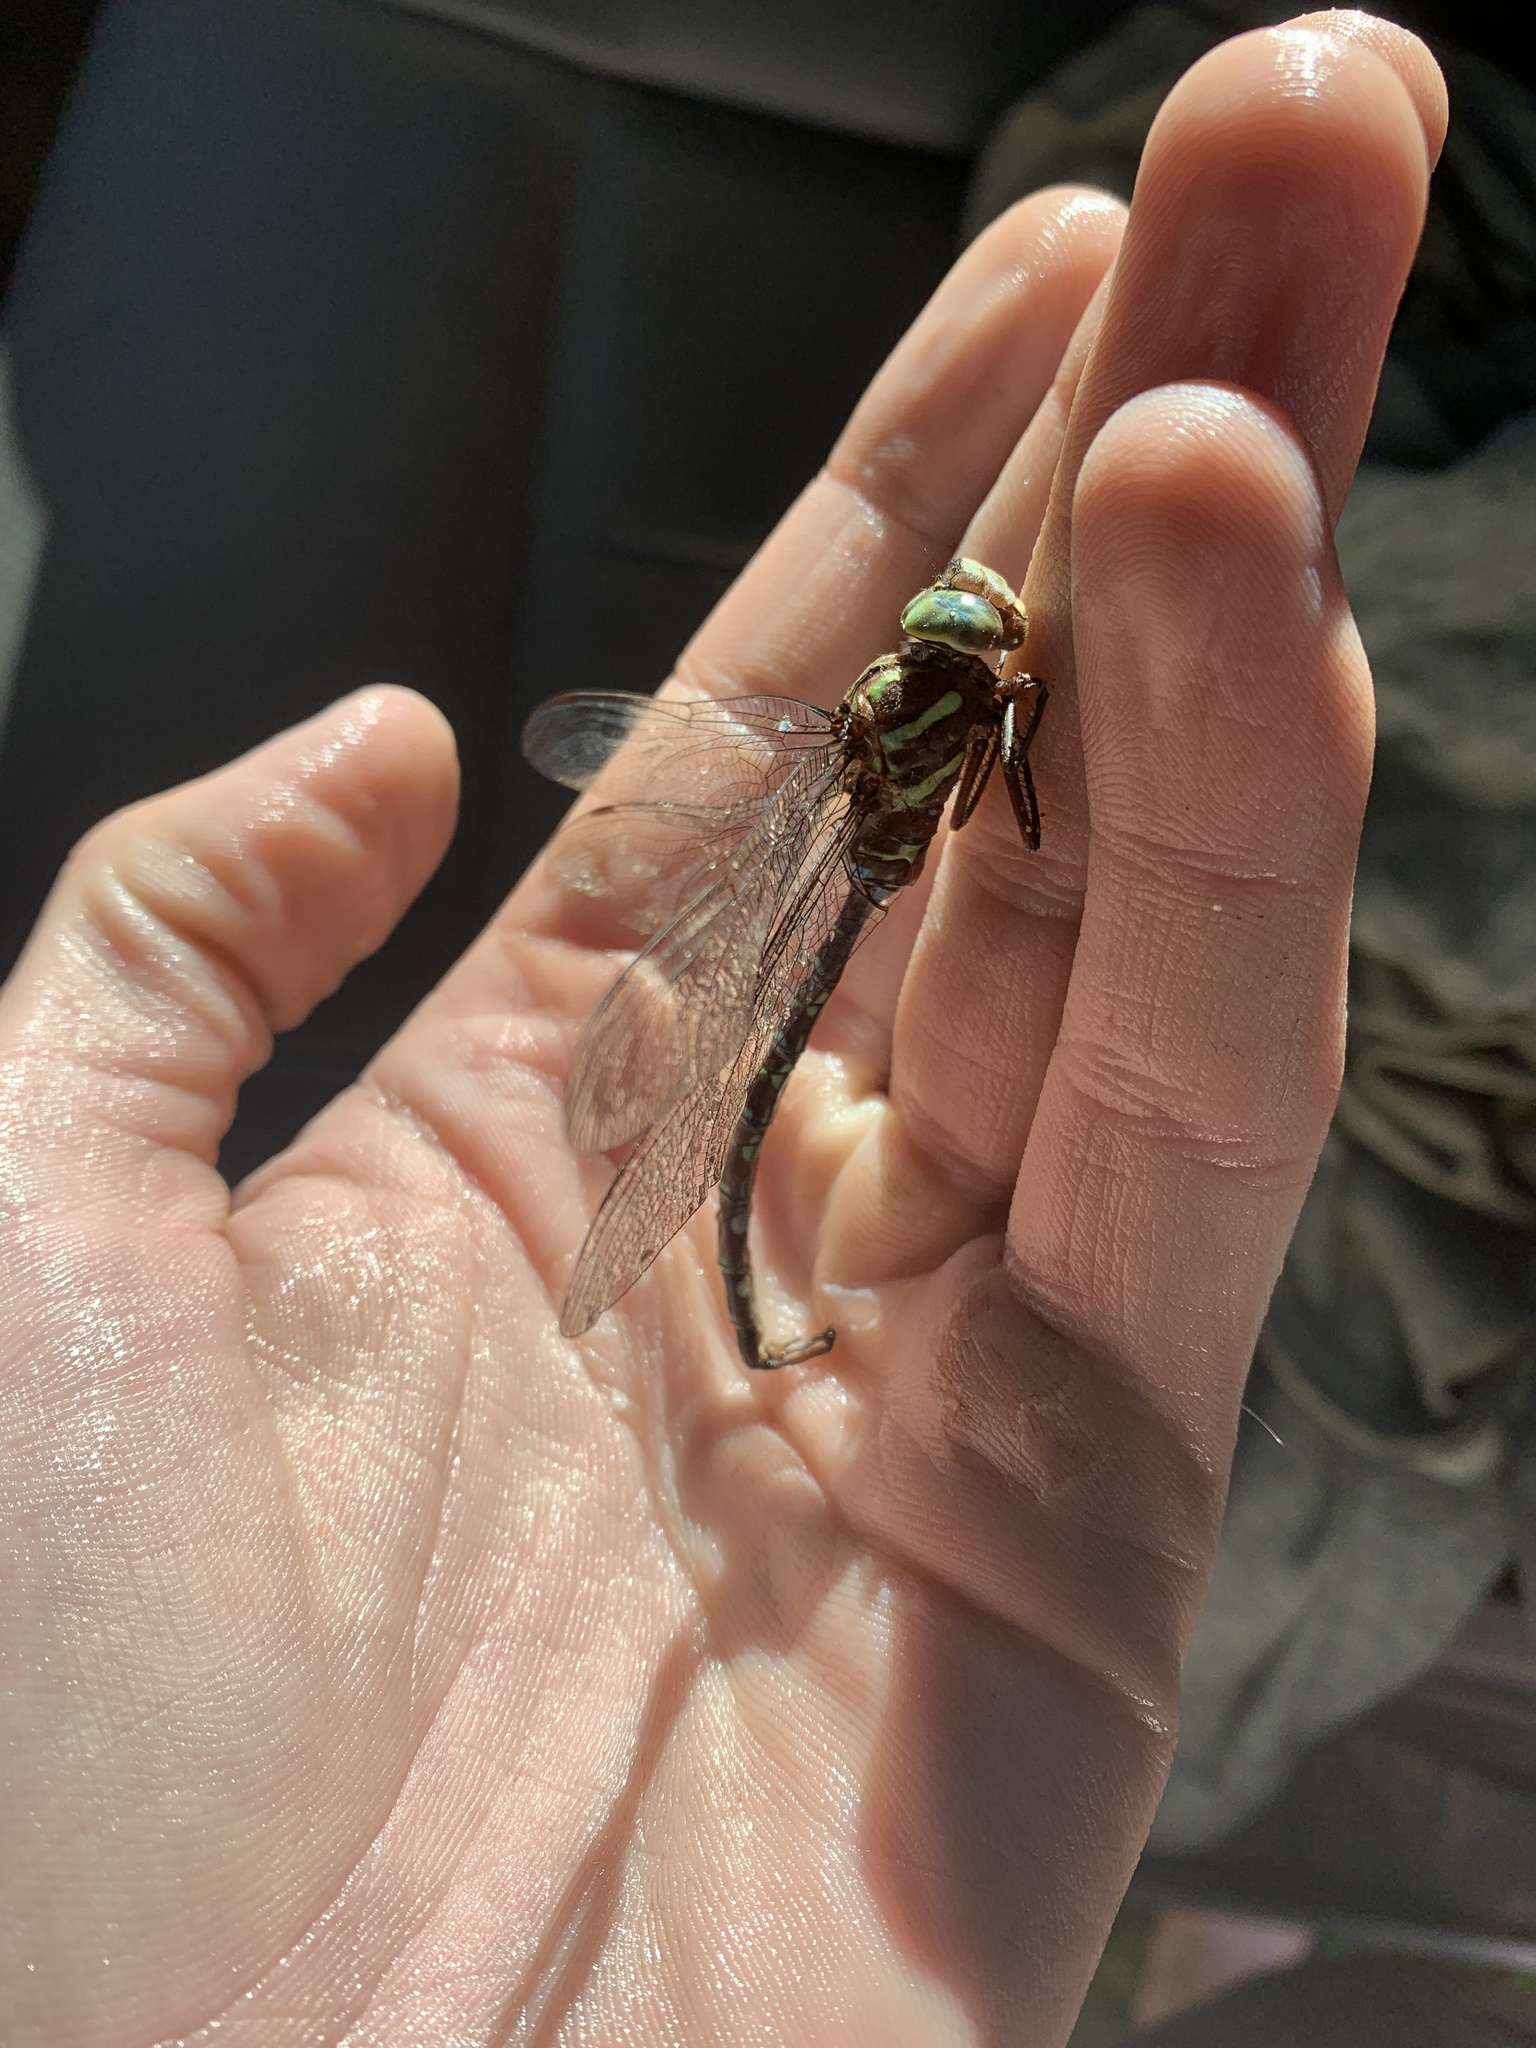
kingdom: Animalia
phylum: Arthropoda
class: Insecta
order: Odonata
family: Aeshnidae
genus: Aeshna
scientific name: Aeshna umbrosa
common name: Shadow darner
